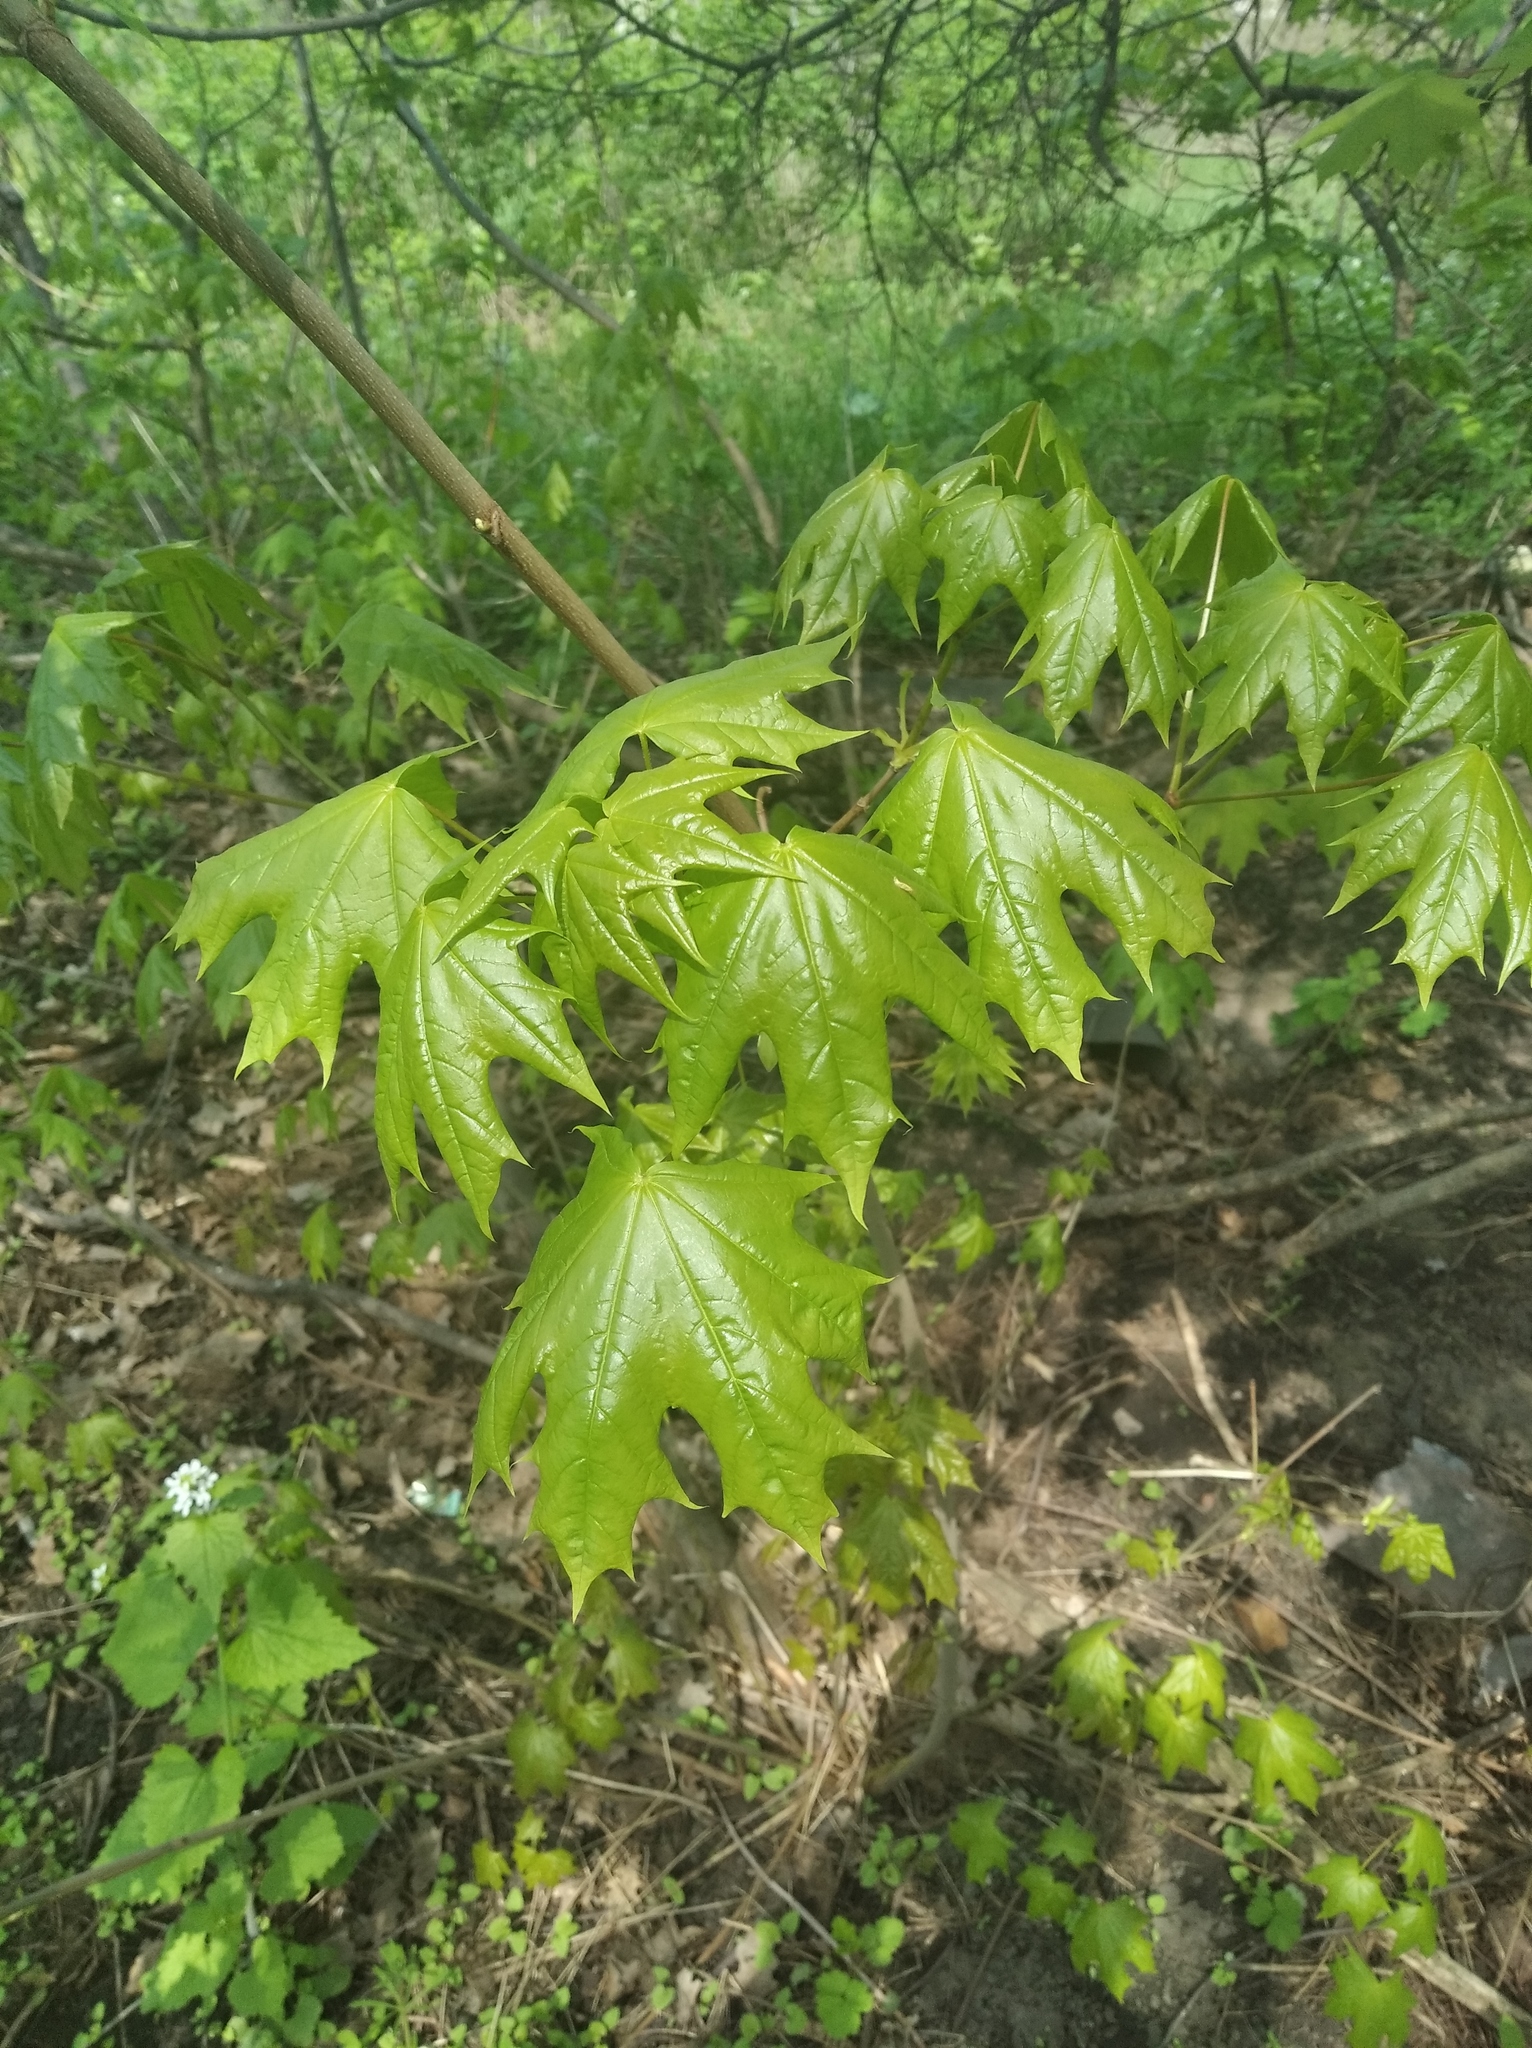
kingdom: Plantae
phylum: Tracheophyta
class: Magnoliopsida
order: Sapindales
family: Sapindaceae
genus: Acer
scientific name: Acer platanoides
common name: Norway maple
